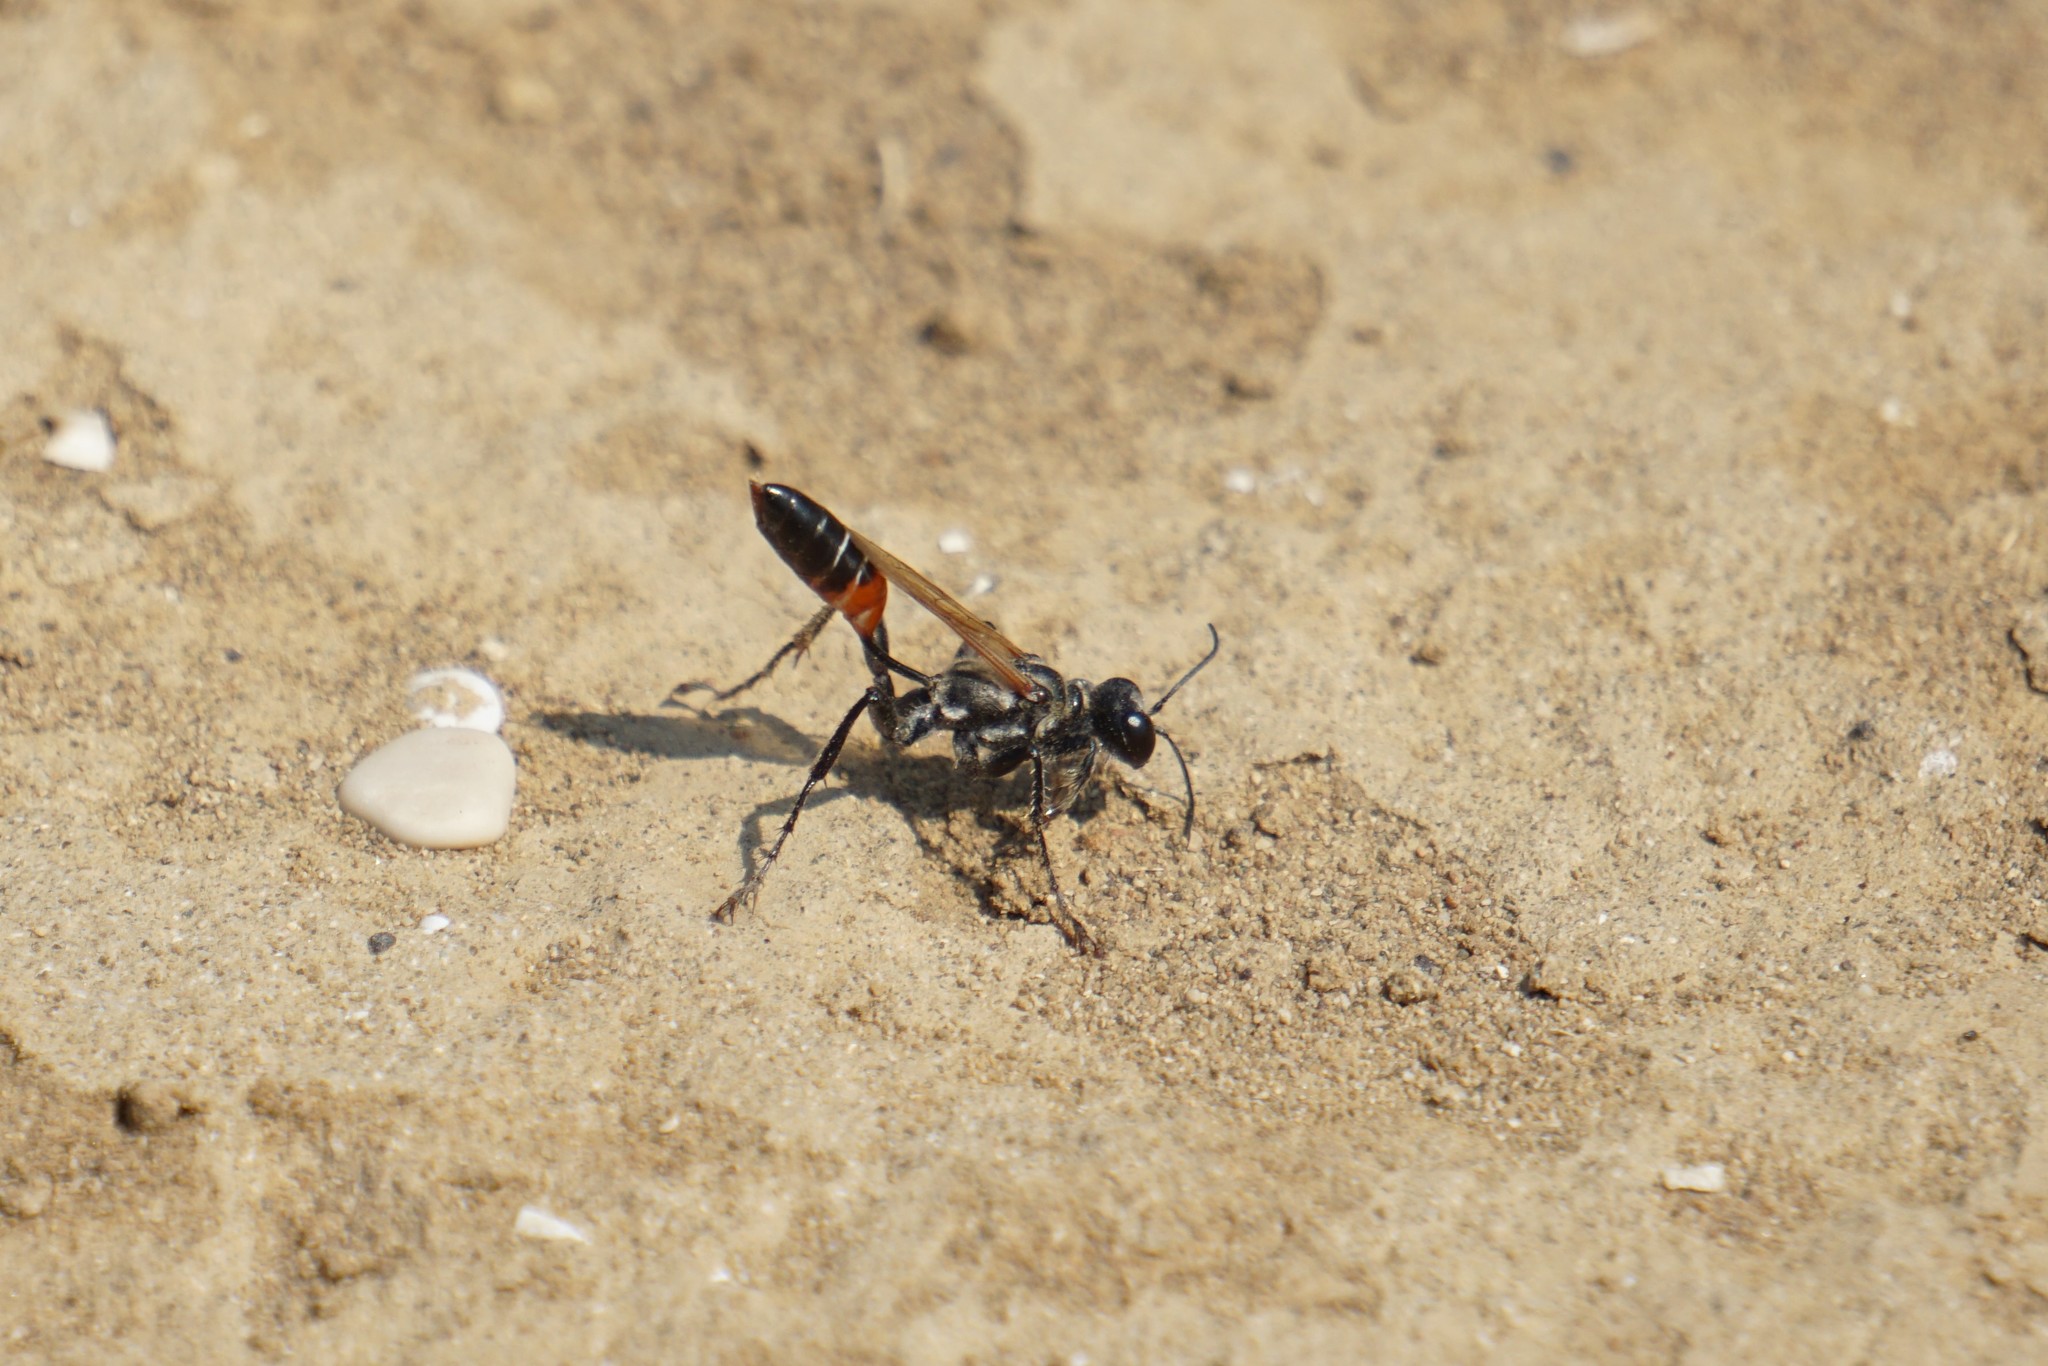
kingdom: Animalia
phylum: Arthropoda
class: Insecta
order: Hymenoptera
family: Sphecidae
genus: Prionyx
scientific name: Prionyx kirbii
